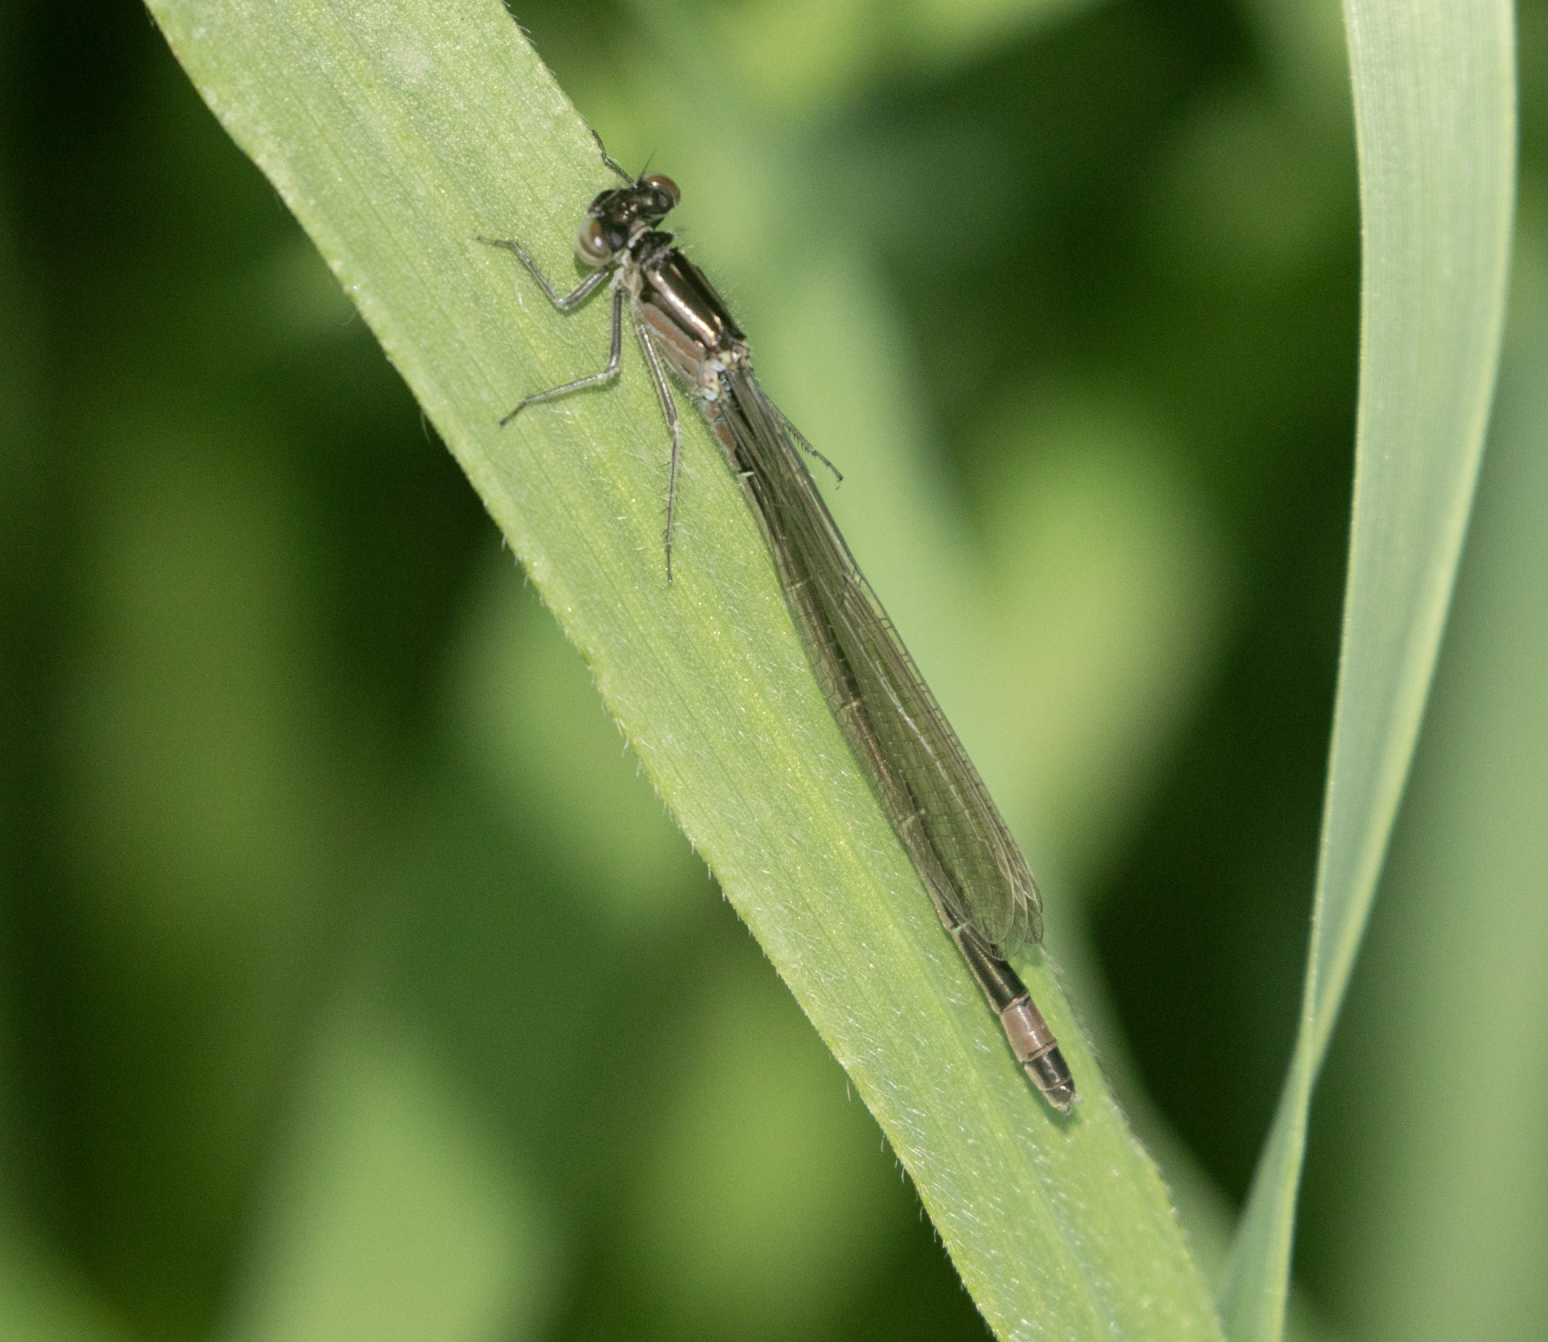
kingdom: Animalia
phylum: Arthropoda
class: Insecta
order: Odonata
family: Coenagrionidae
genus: Ischnura
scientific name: Ischnura elegans
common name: Blue-tailed damselfly
